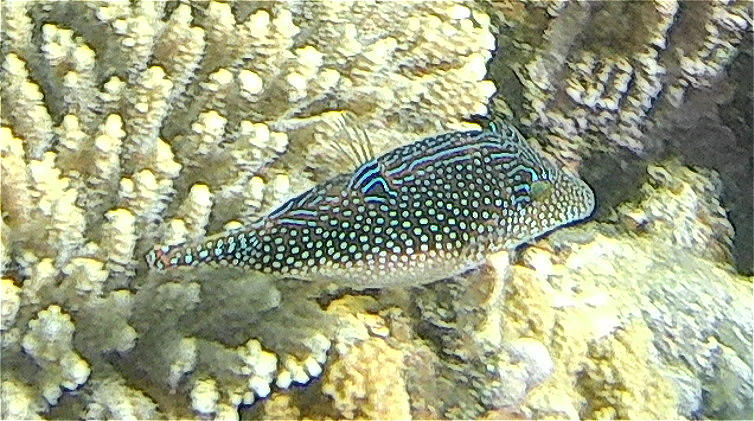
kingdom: Animalia
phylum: Chordata
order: Tetraodontiformes
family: Tetraodontidae
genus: Canthigaster
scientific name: Canthigaster margaritata
